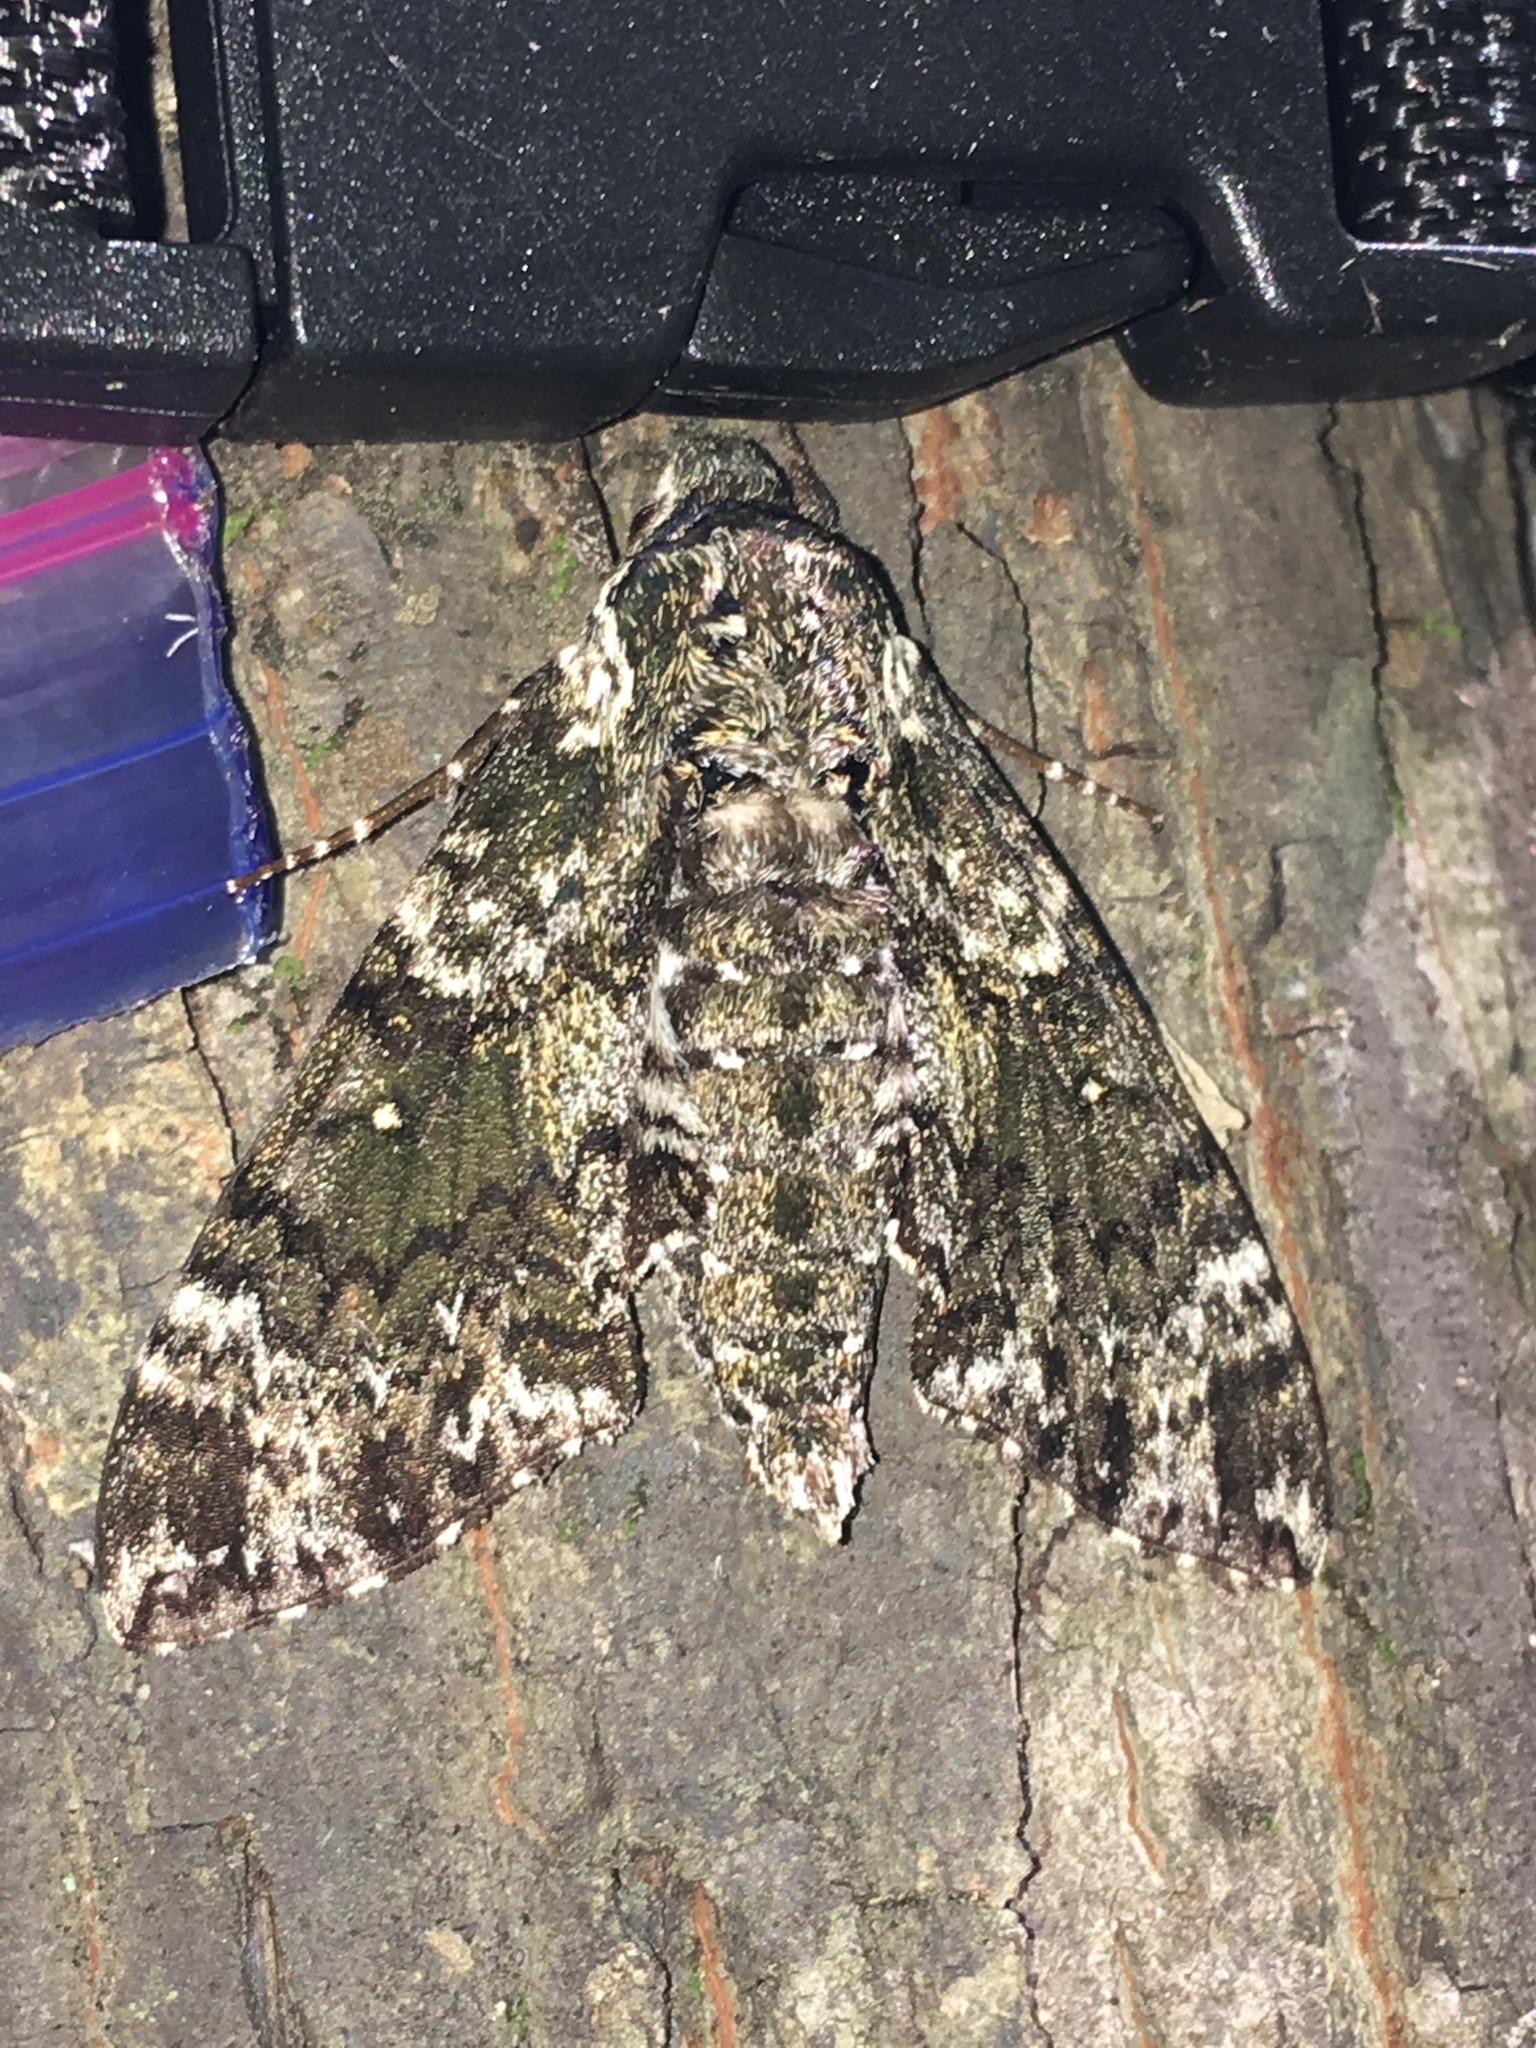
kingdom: Animalia
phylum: Arthropoda
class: Insecta
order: Lepidoptera
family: Sphingidae
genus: Manduca
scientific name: Manduca rustica
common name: Rustic sphinx
